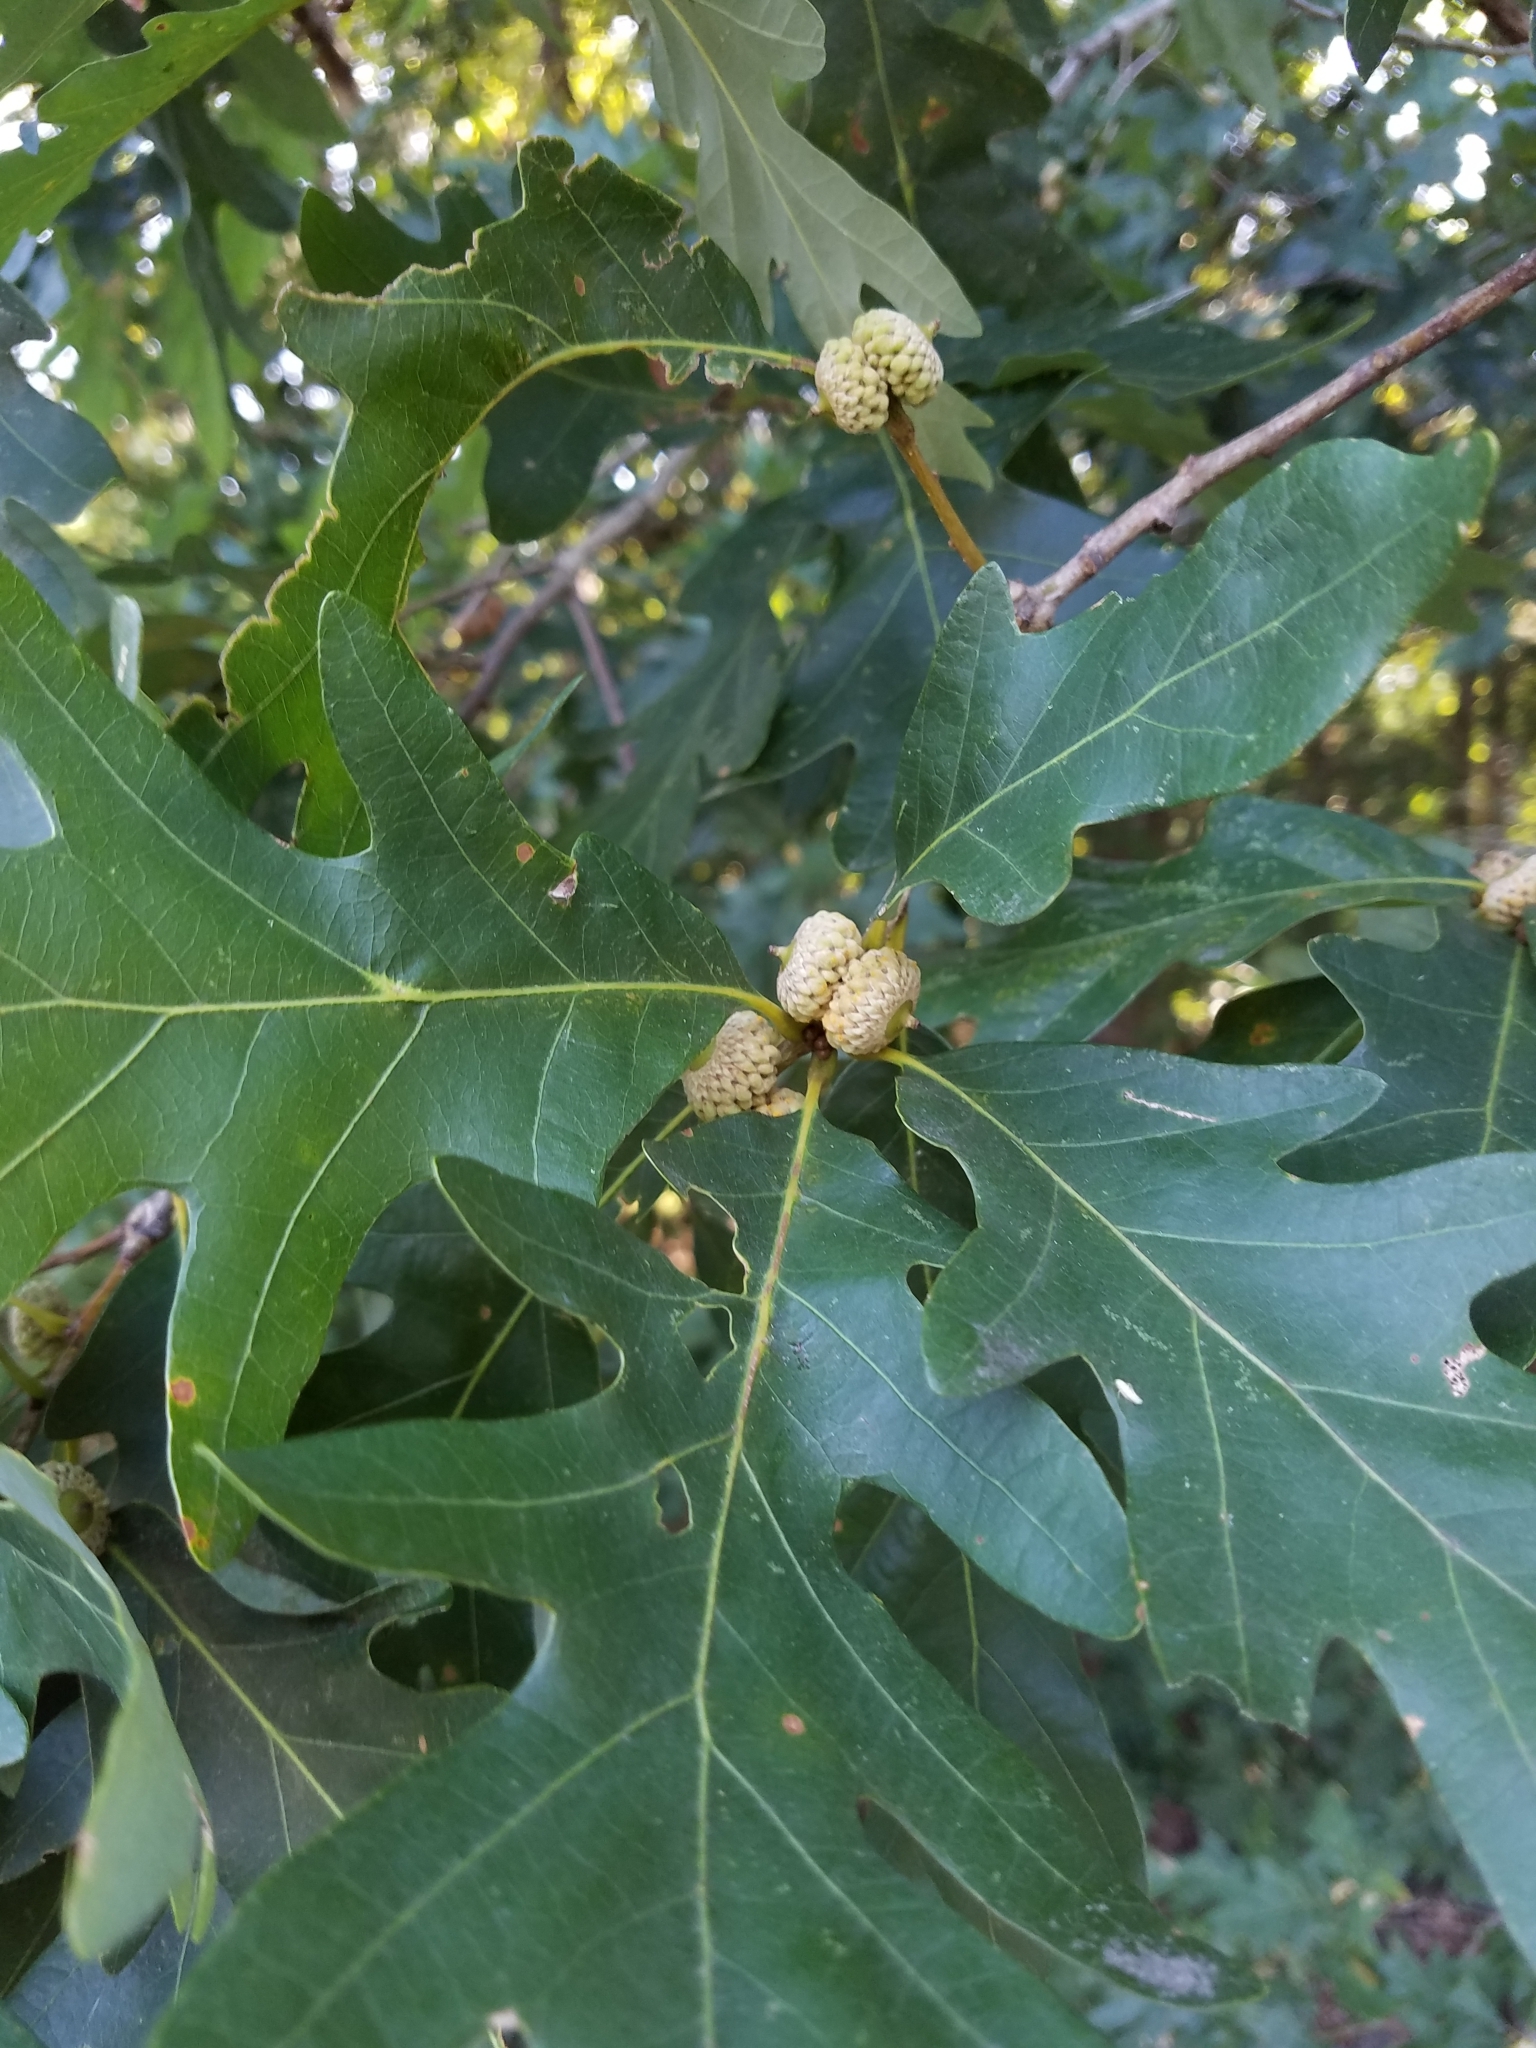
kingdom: Plantae
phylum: Tracheophyta
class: Magnoliopsida
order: Fagales
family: Fagaceae
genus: Quercus
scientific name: Quercus alba
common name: White oak
